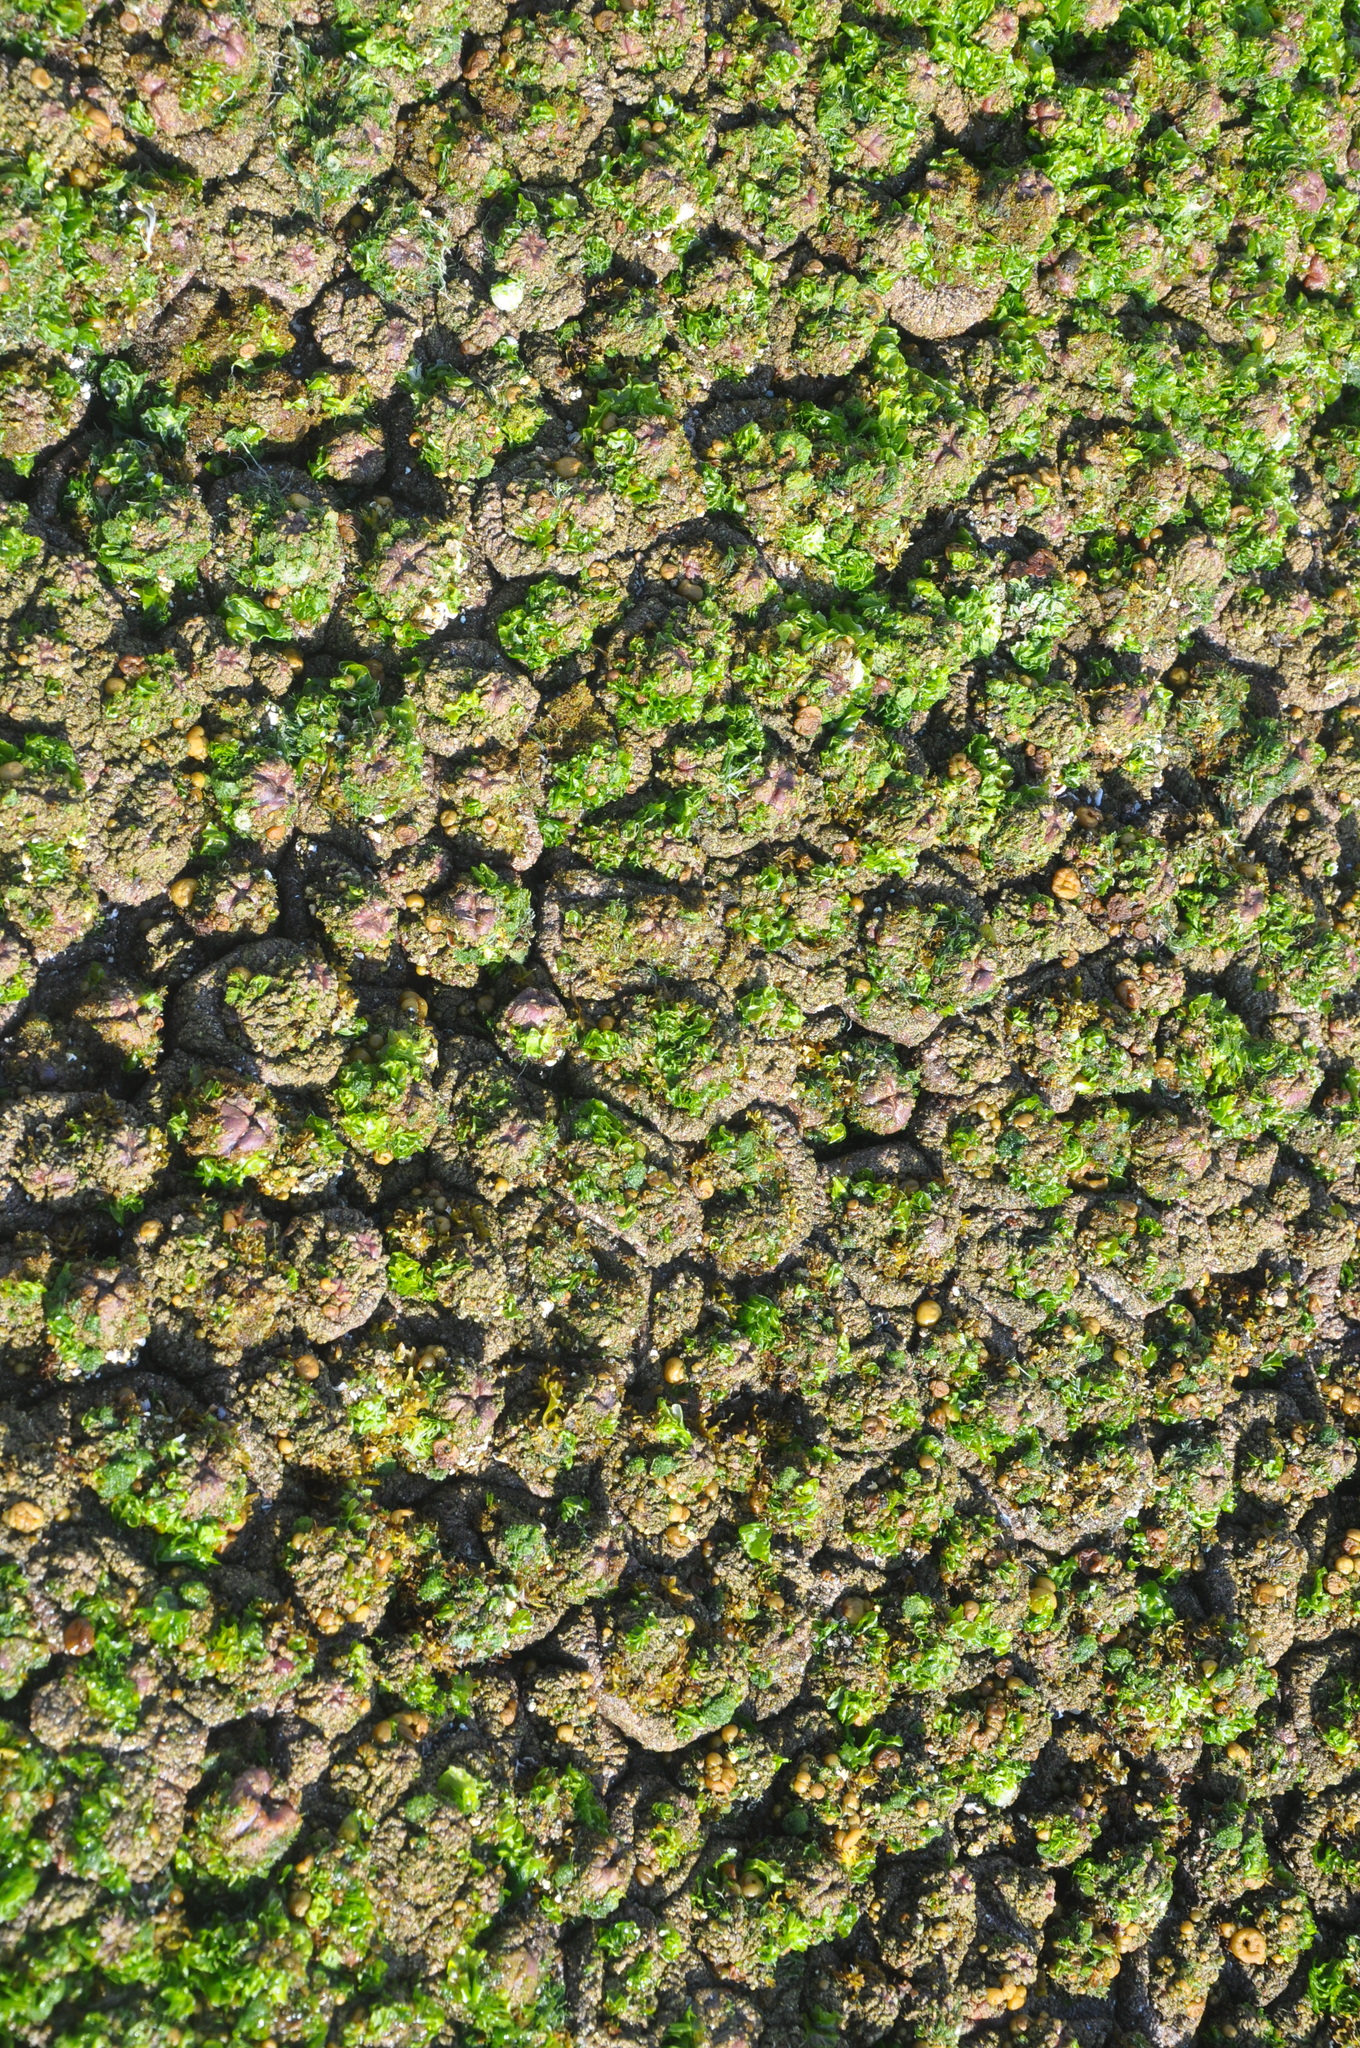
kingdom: Animalia
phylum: Chordata
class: Ascidiacea
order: Stolidobranchia
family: Pyuridae
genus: Pyura
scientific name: Pyura praeputialis
